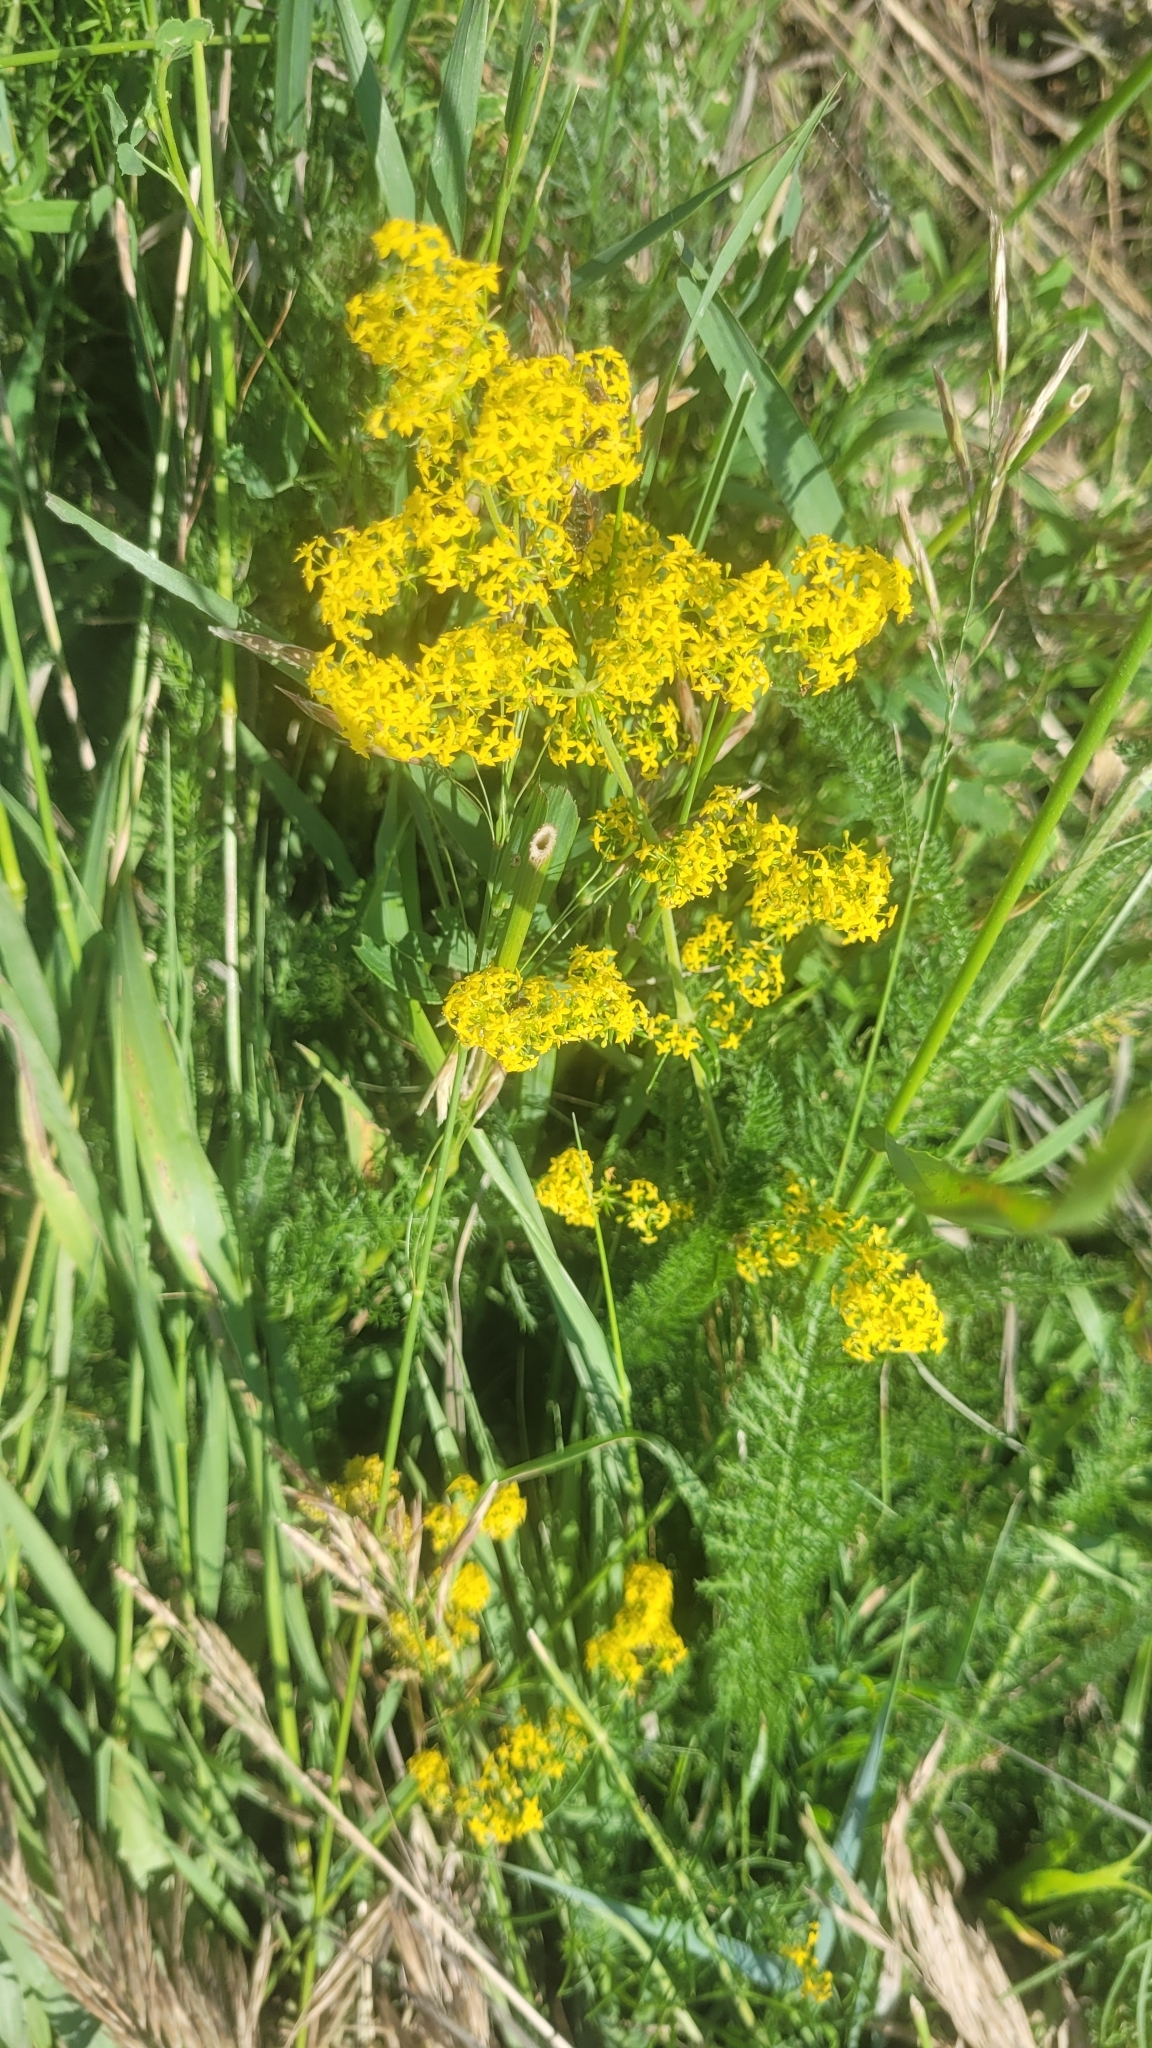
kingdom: Plantae
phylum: Tracheophyta
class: Magnoliopsida
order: Gentianales
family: Rubiaceae
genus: Galium
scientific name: Galium verum
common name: Lady's bedstraw
